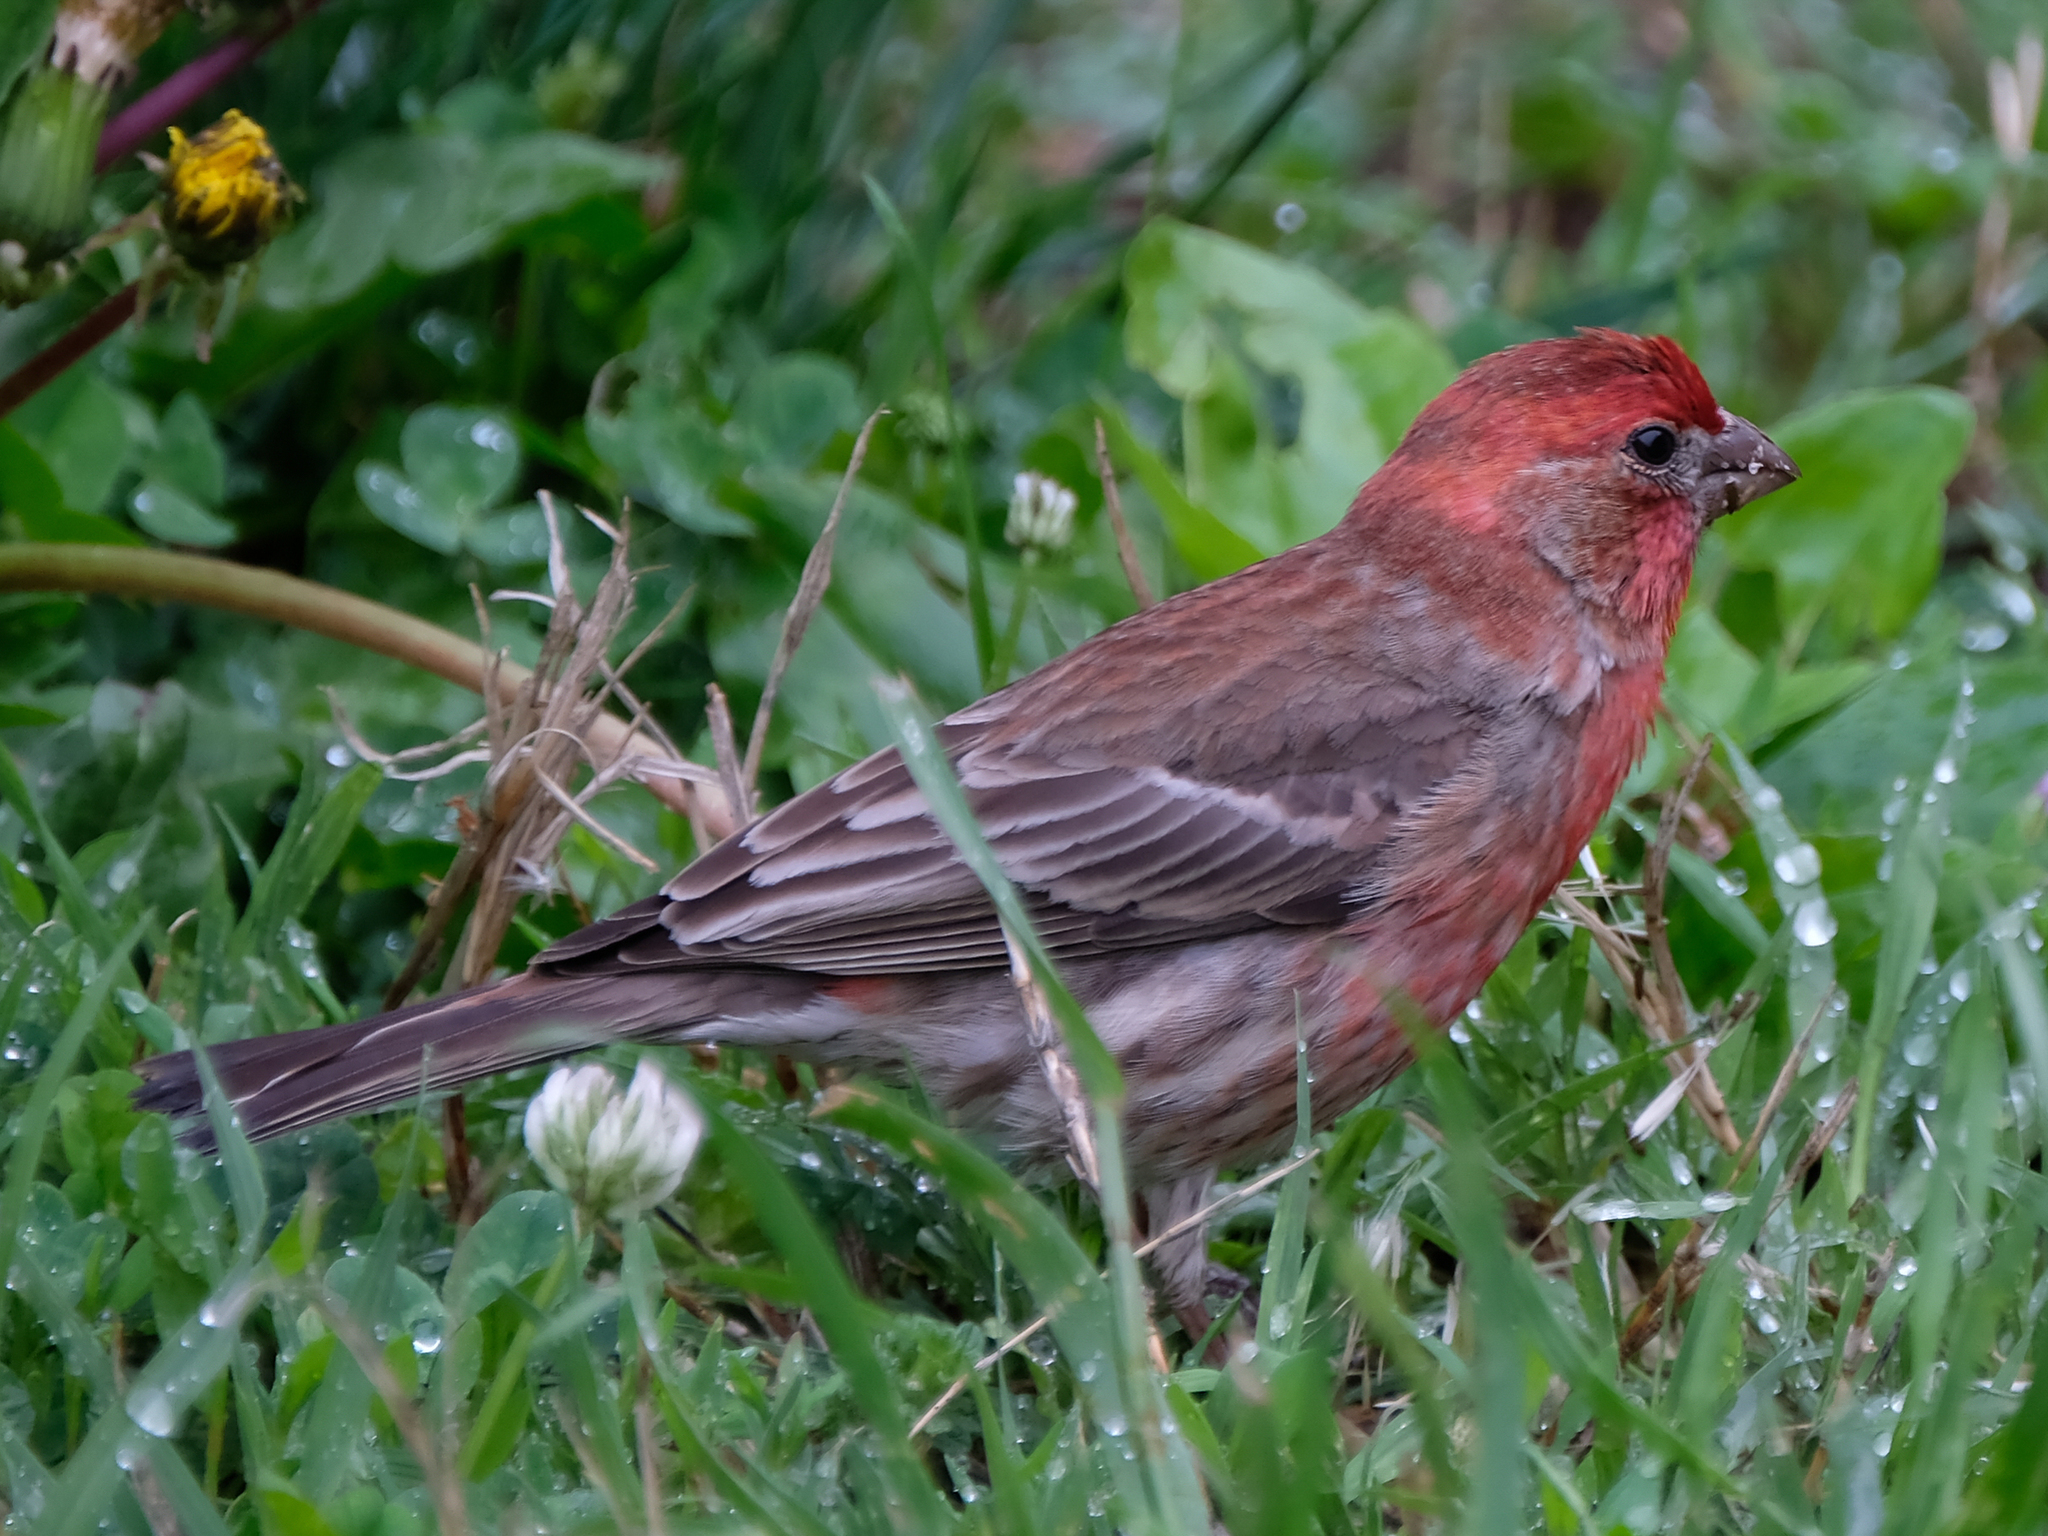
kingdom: Animalia
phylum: Chordata
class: Aves
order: Passeriformes
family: Fringillidae
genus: Haemorhous
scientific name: Haemorhous mexicanus
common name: House finch
